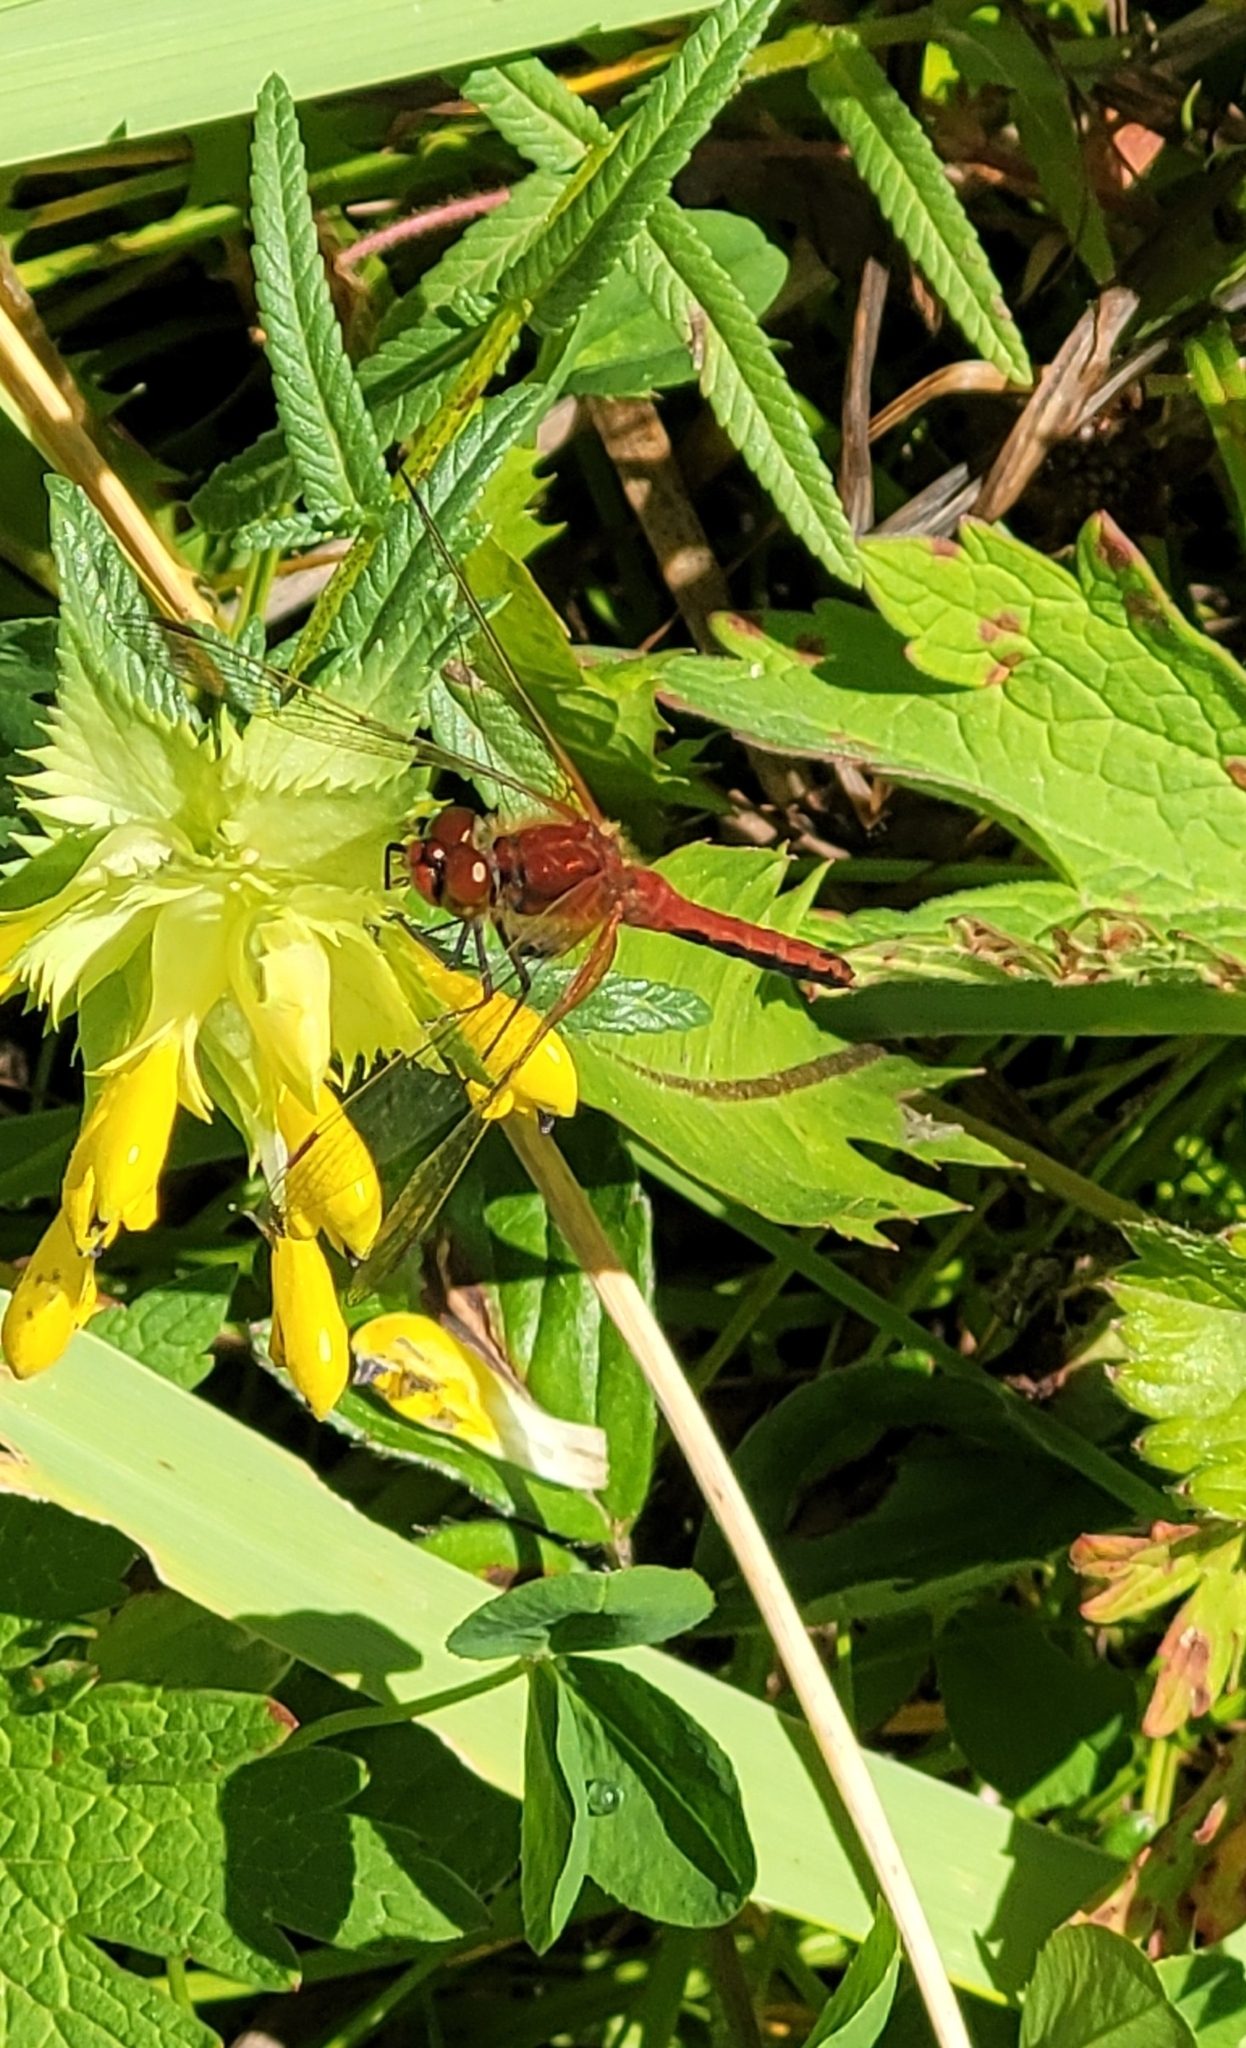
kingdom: Animalia
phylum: Arthropoda
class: Insecta
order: Odonata
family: Libellulidae
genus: Sympetrum
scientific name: Sympetrum flaveolum
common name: Yellow-winged darter
